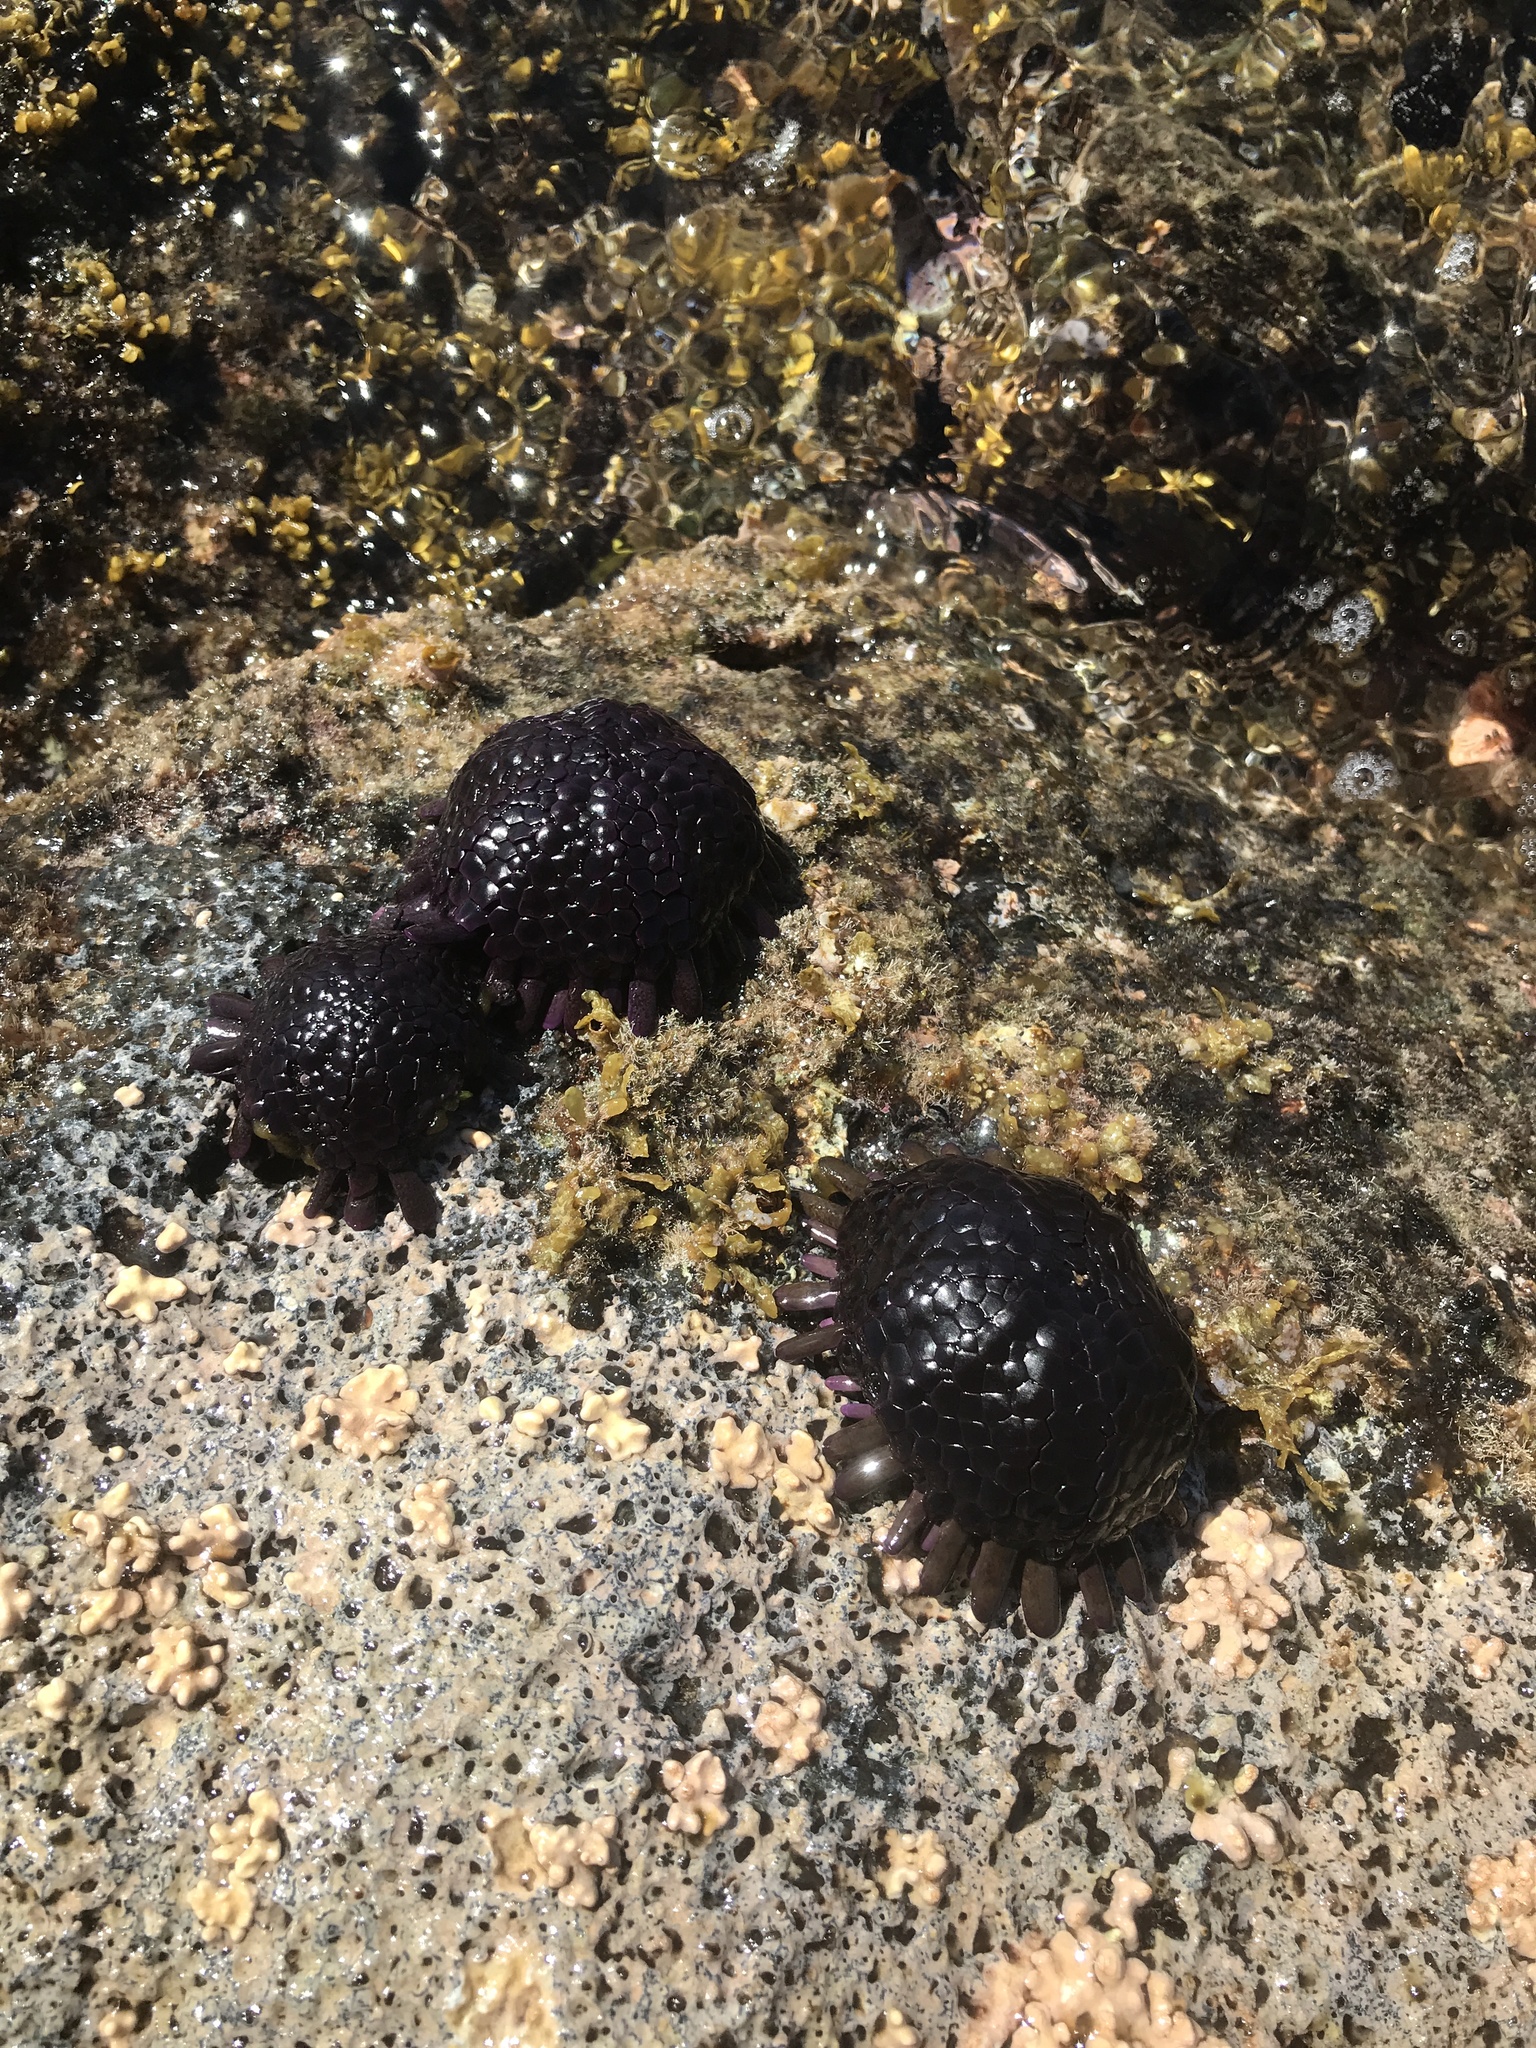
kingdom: Animalia
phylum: Echinodermata
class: Echinoidea
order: Camarodonta
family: Echinometridae
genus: Colobocentrotus
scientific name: Colobocentrotus atratus
